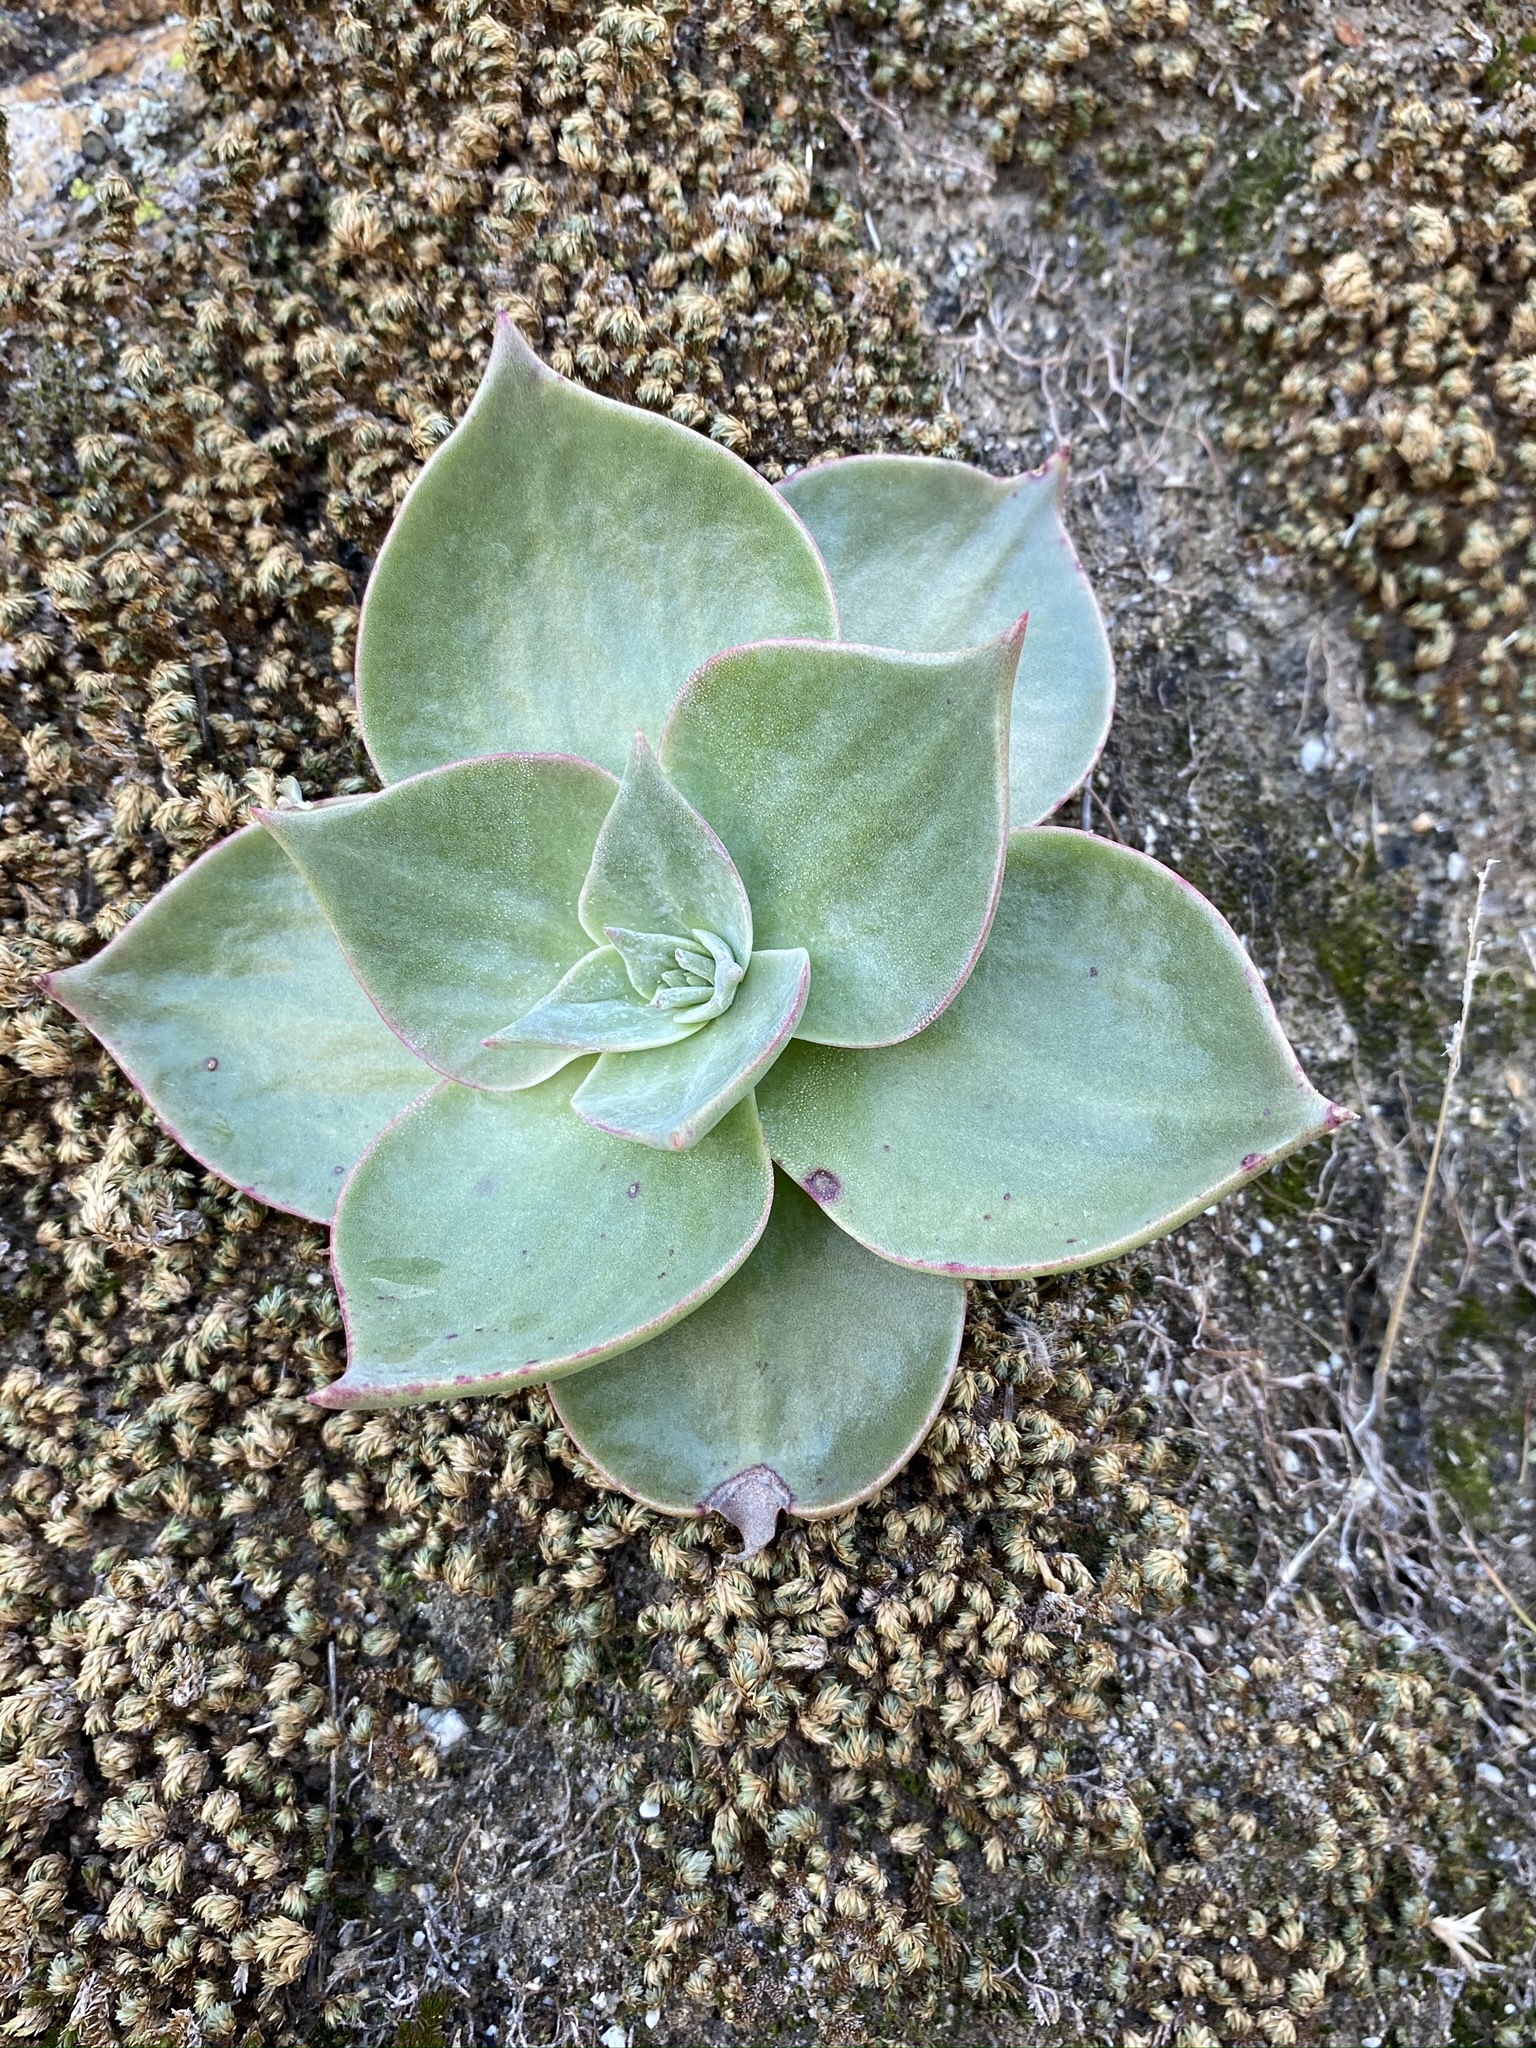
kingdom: Plantae
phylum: Tracheophyta
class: Magnoliopsida
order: Saxifragales
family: Crassulaceae
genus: Dudleya
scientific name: Dudleya arizonica
